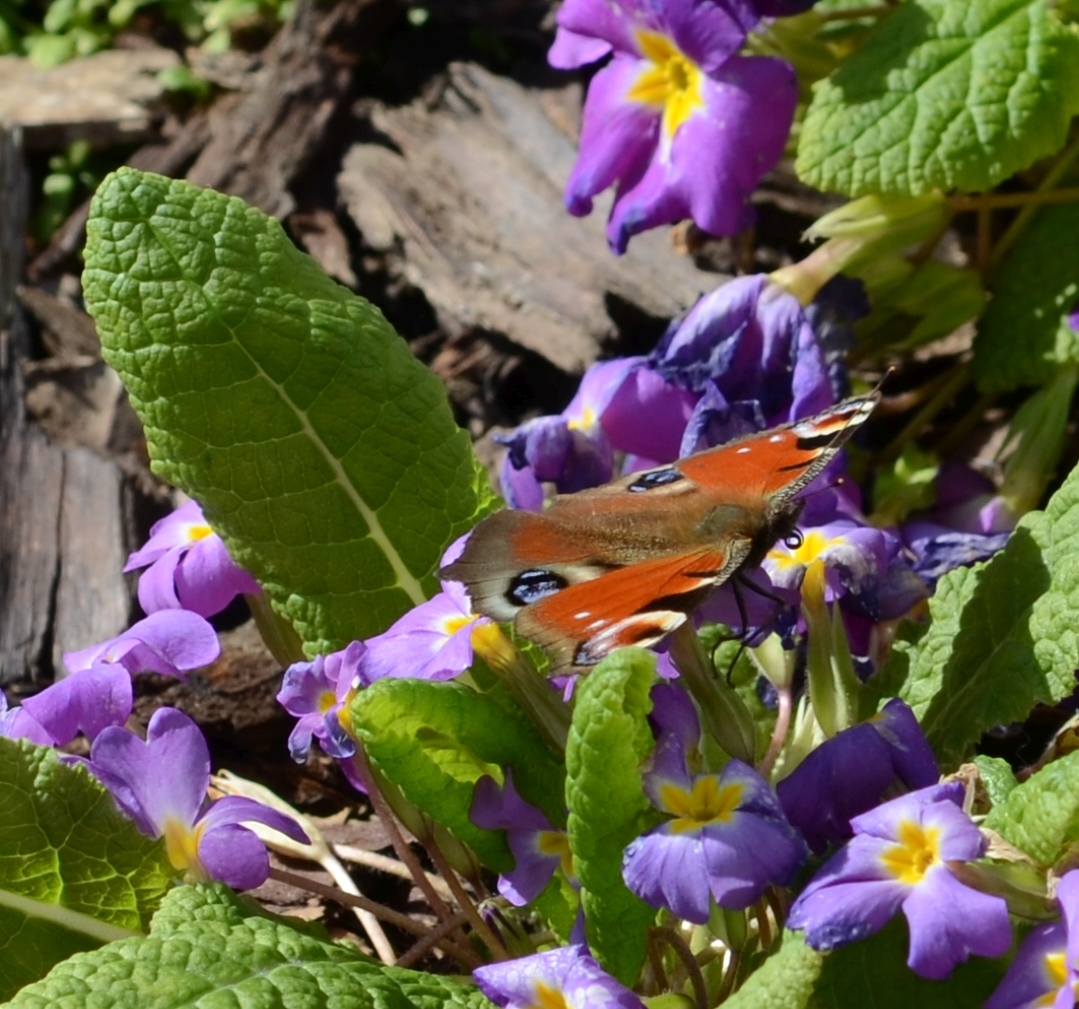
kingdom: Animalia
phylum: Arthropoda
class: Insecta
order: Lepidoptera
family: Nymphalidae
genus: Aglais
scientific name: Aglais io
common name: Peacock
